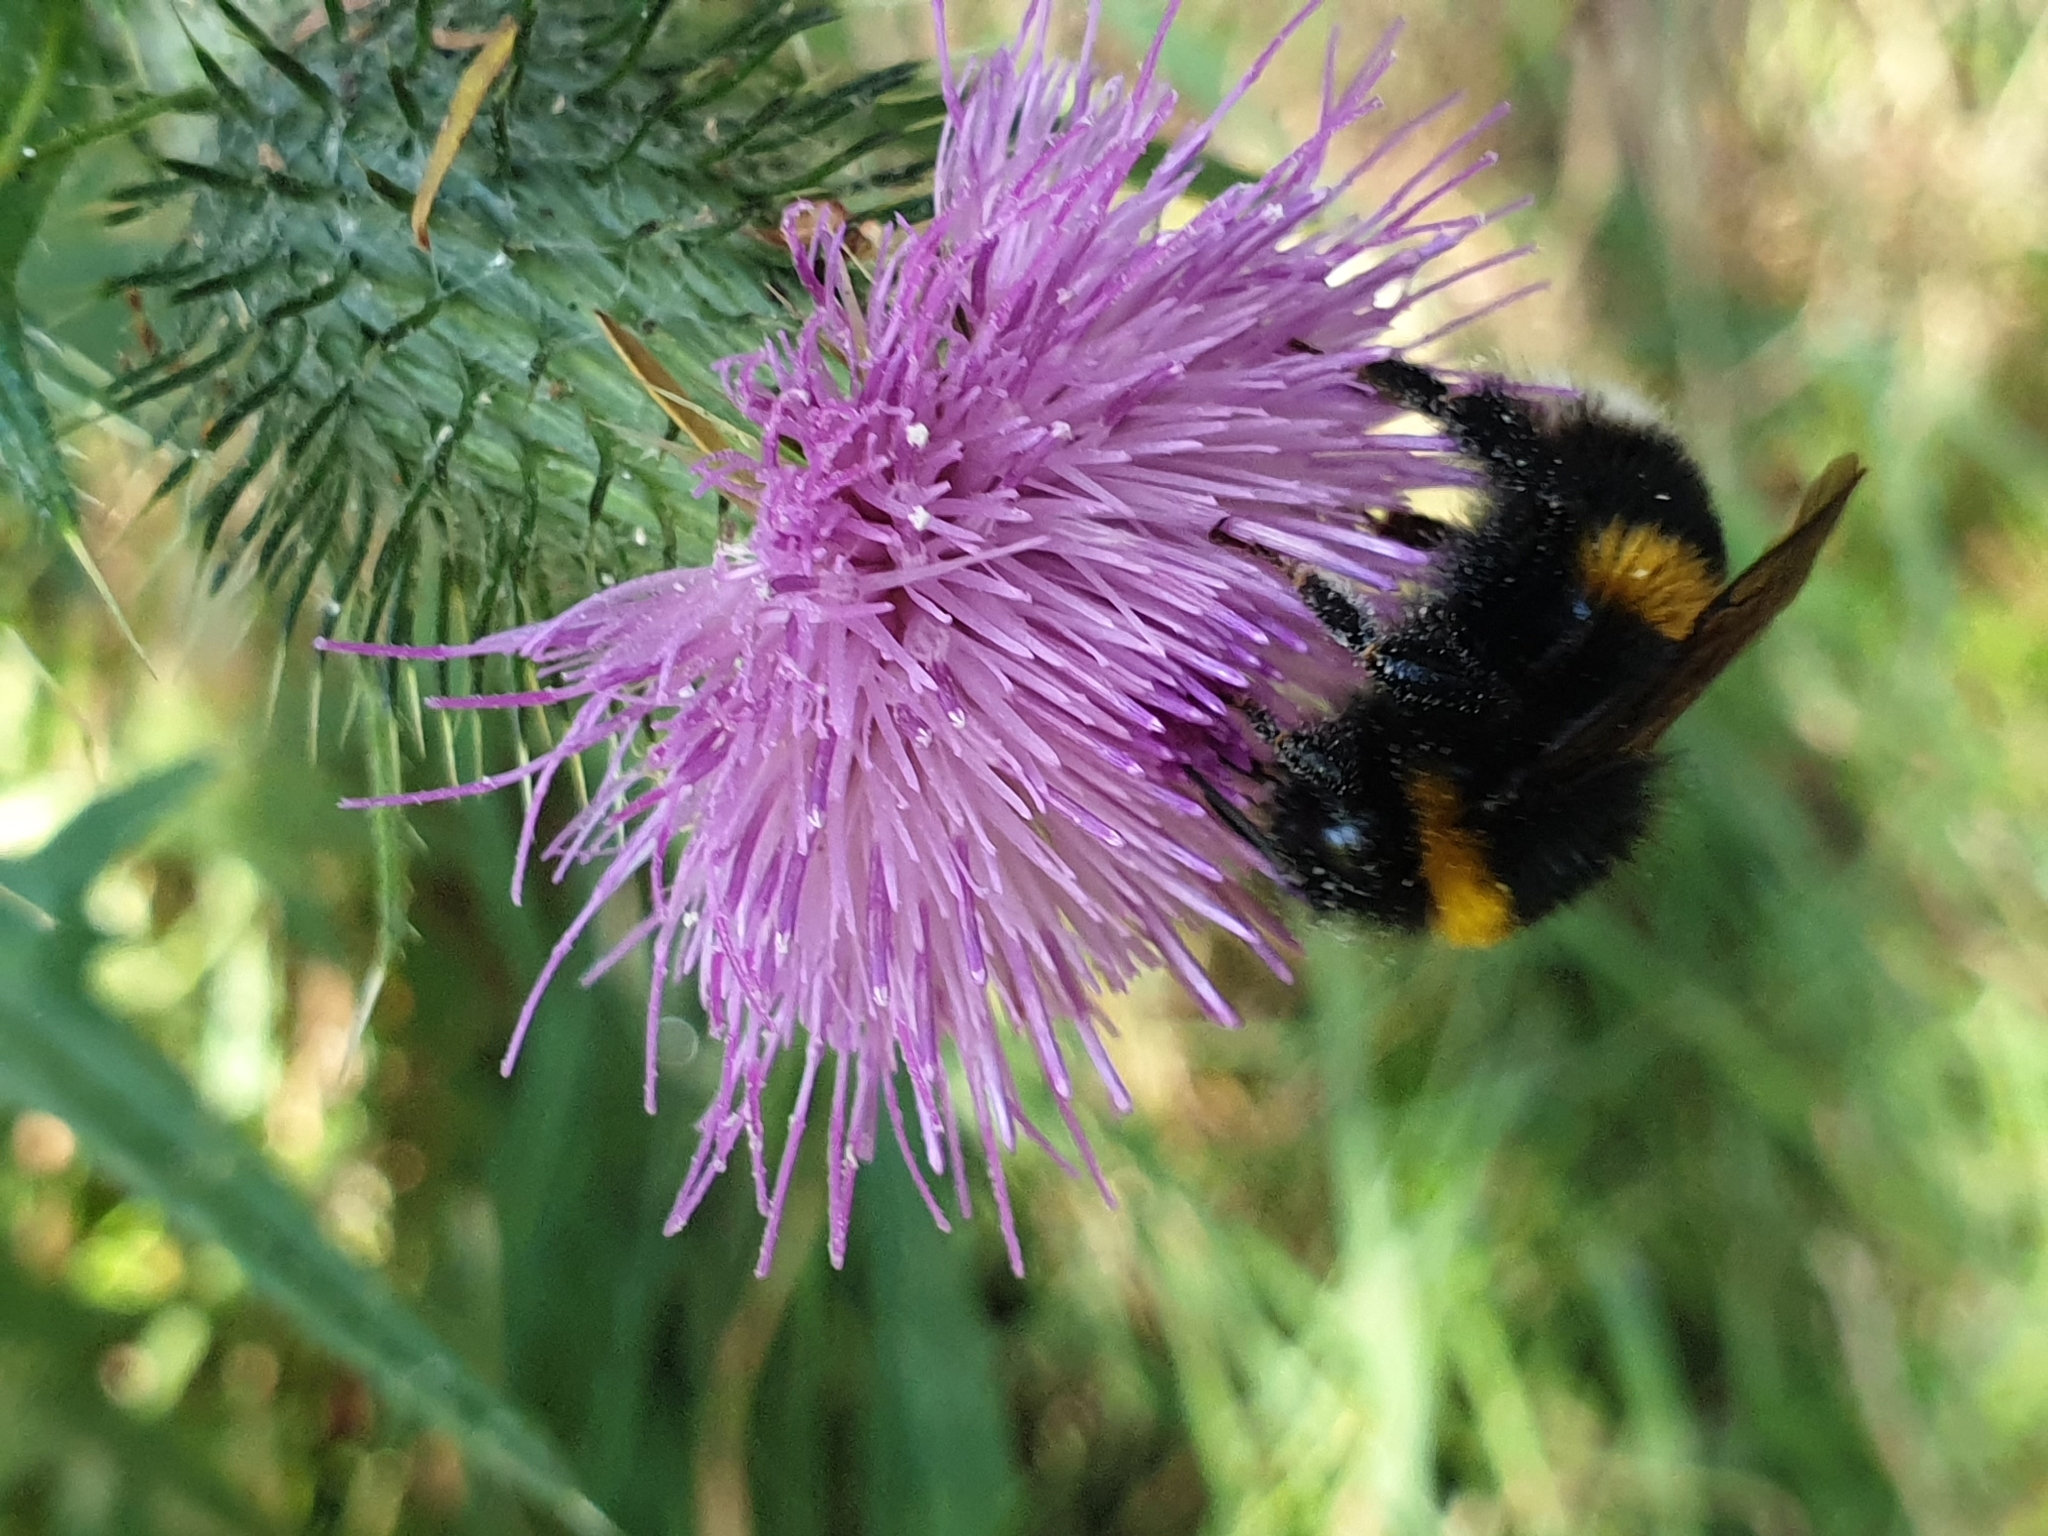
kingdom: Animalia
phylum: Arthropoda
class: Insecta
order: Hymenoptera
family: Apidae
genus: Bombus
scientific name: Bombus terrestris
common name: Buff-tailed bumblebee
